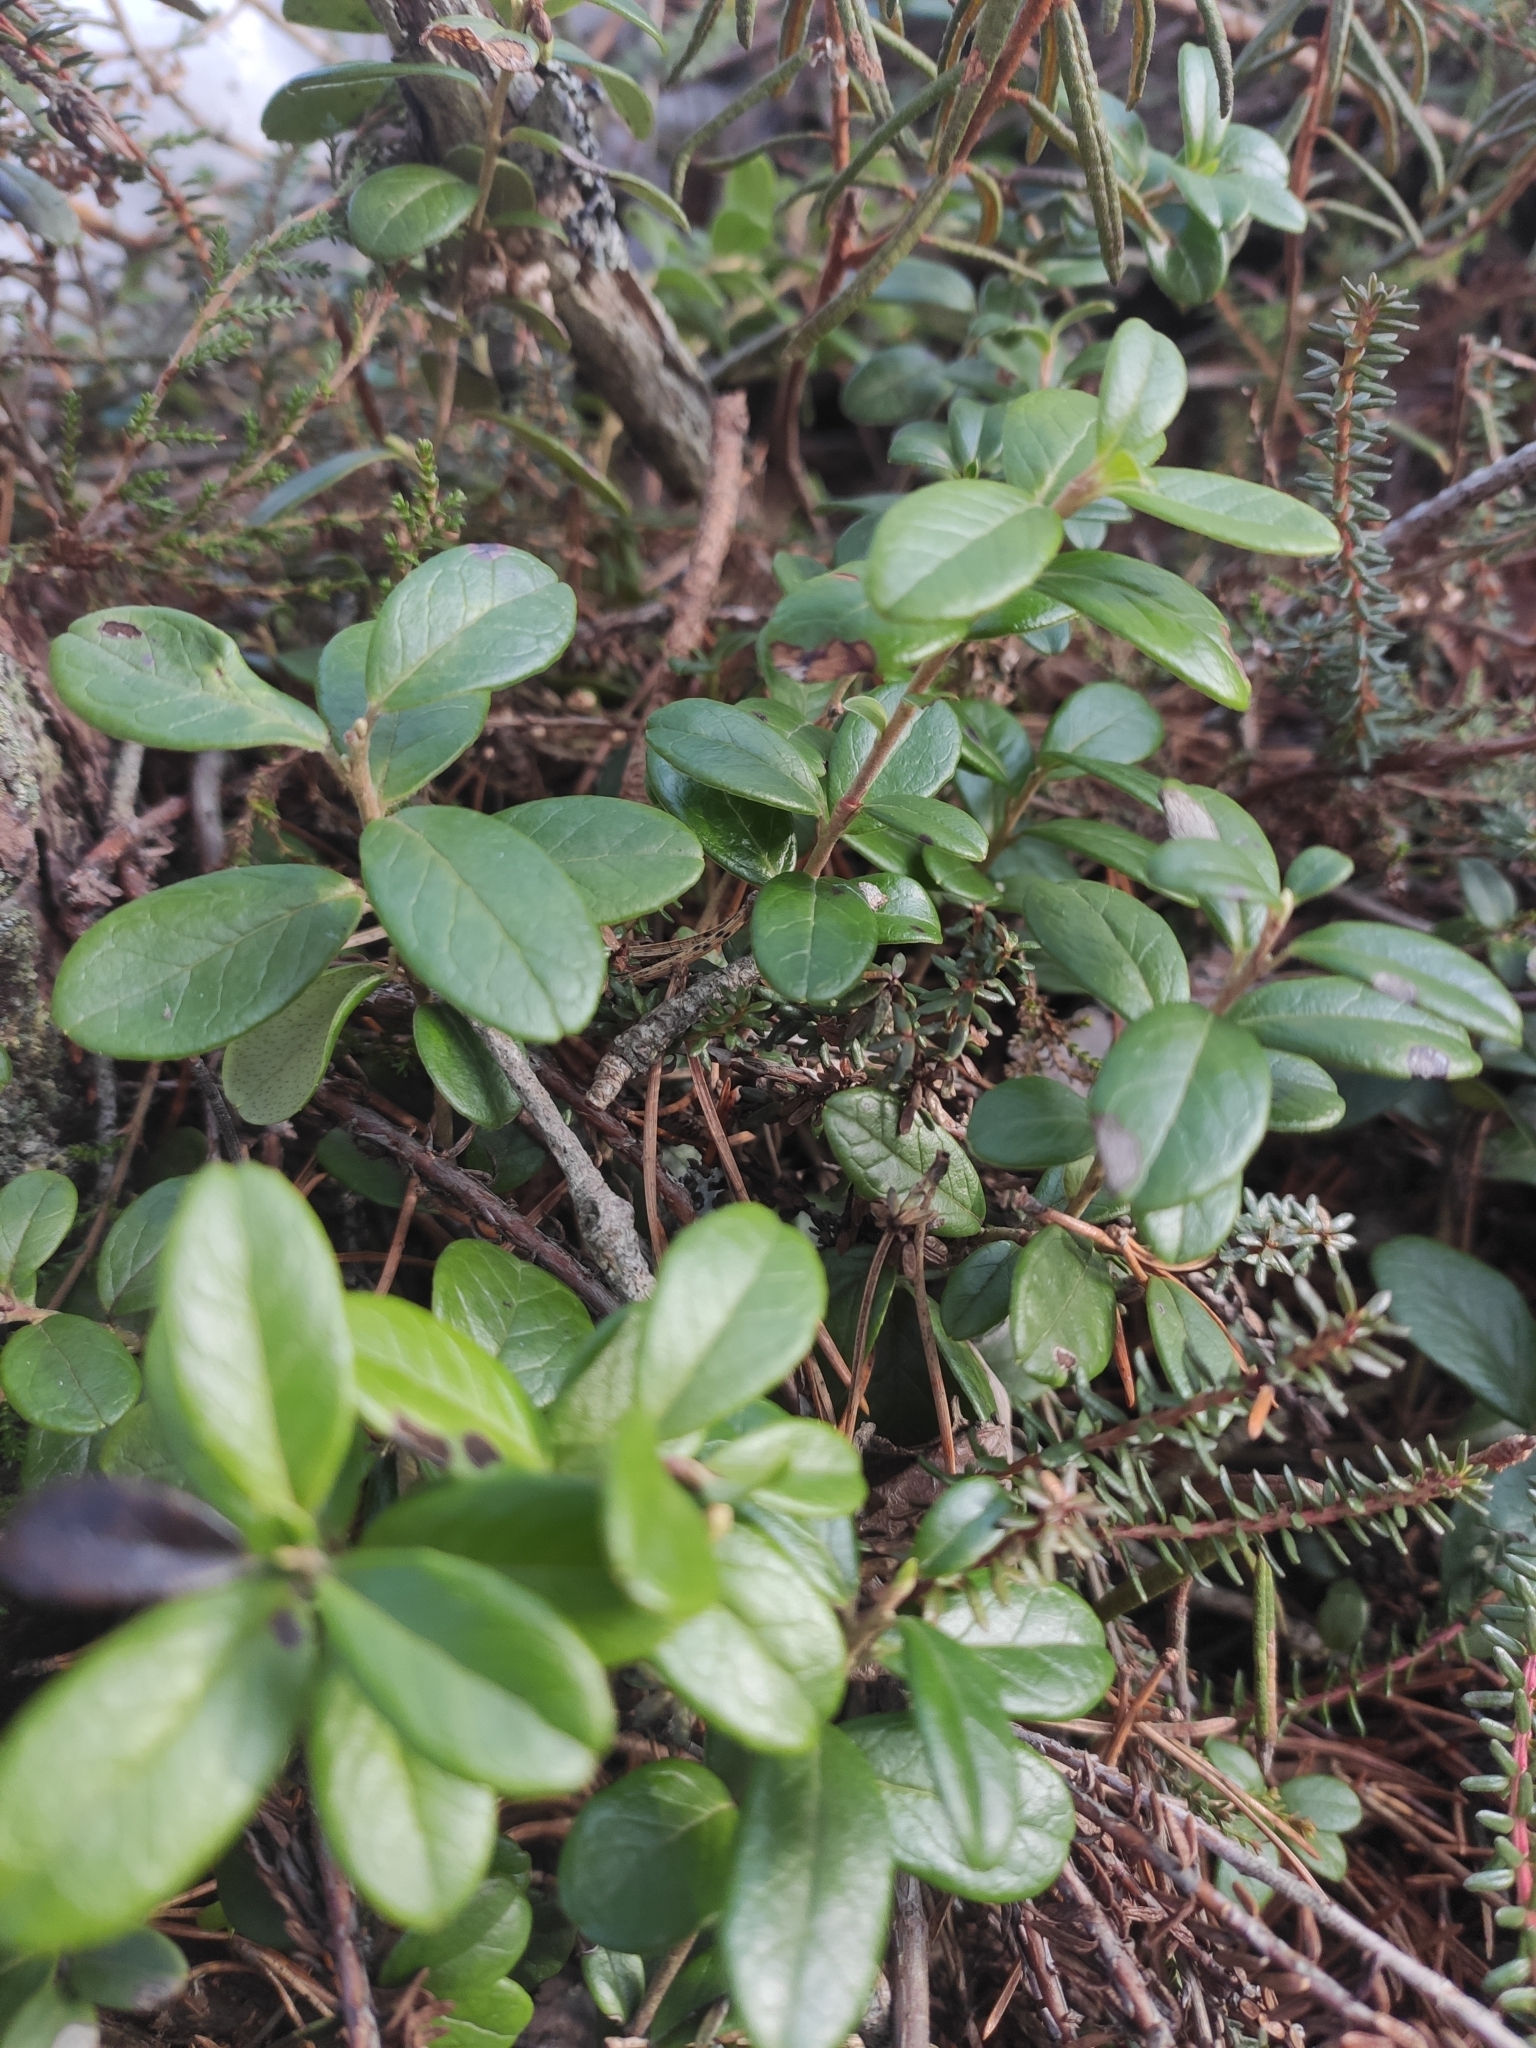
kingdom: Plantae
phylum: Tracheophyta
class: Magnoliopsida
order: Ericales
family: Ericaceae
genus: Vaccinium
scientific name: Vaccinium vitis-idaea
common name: Cowberry
